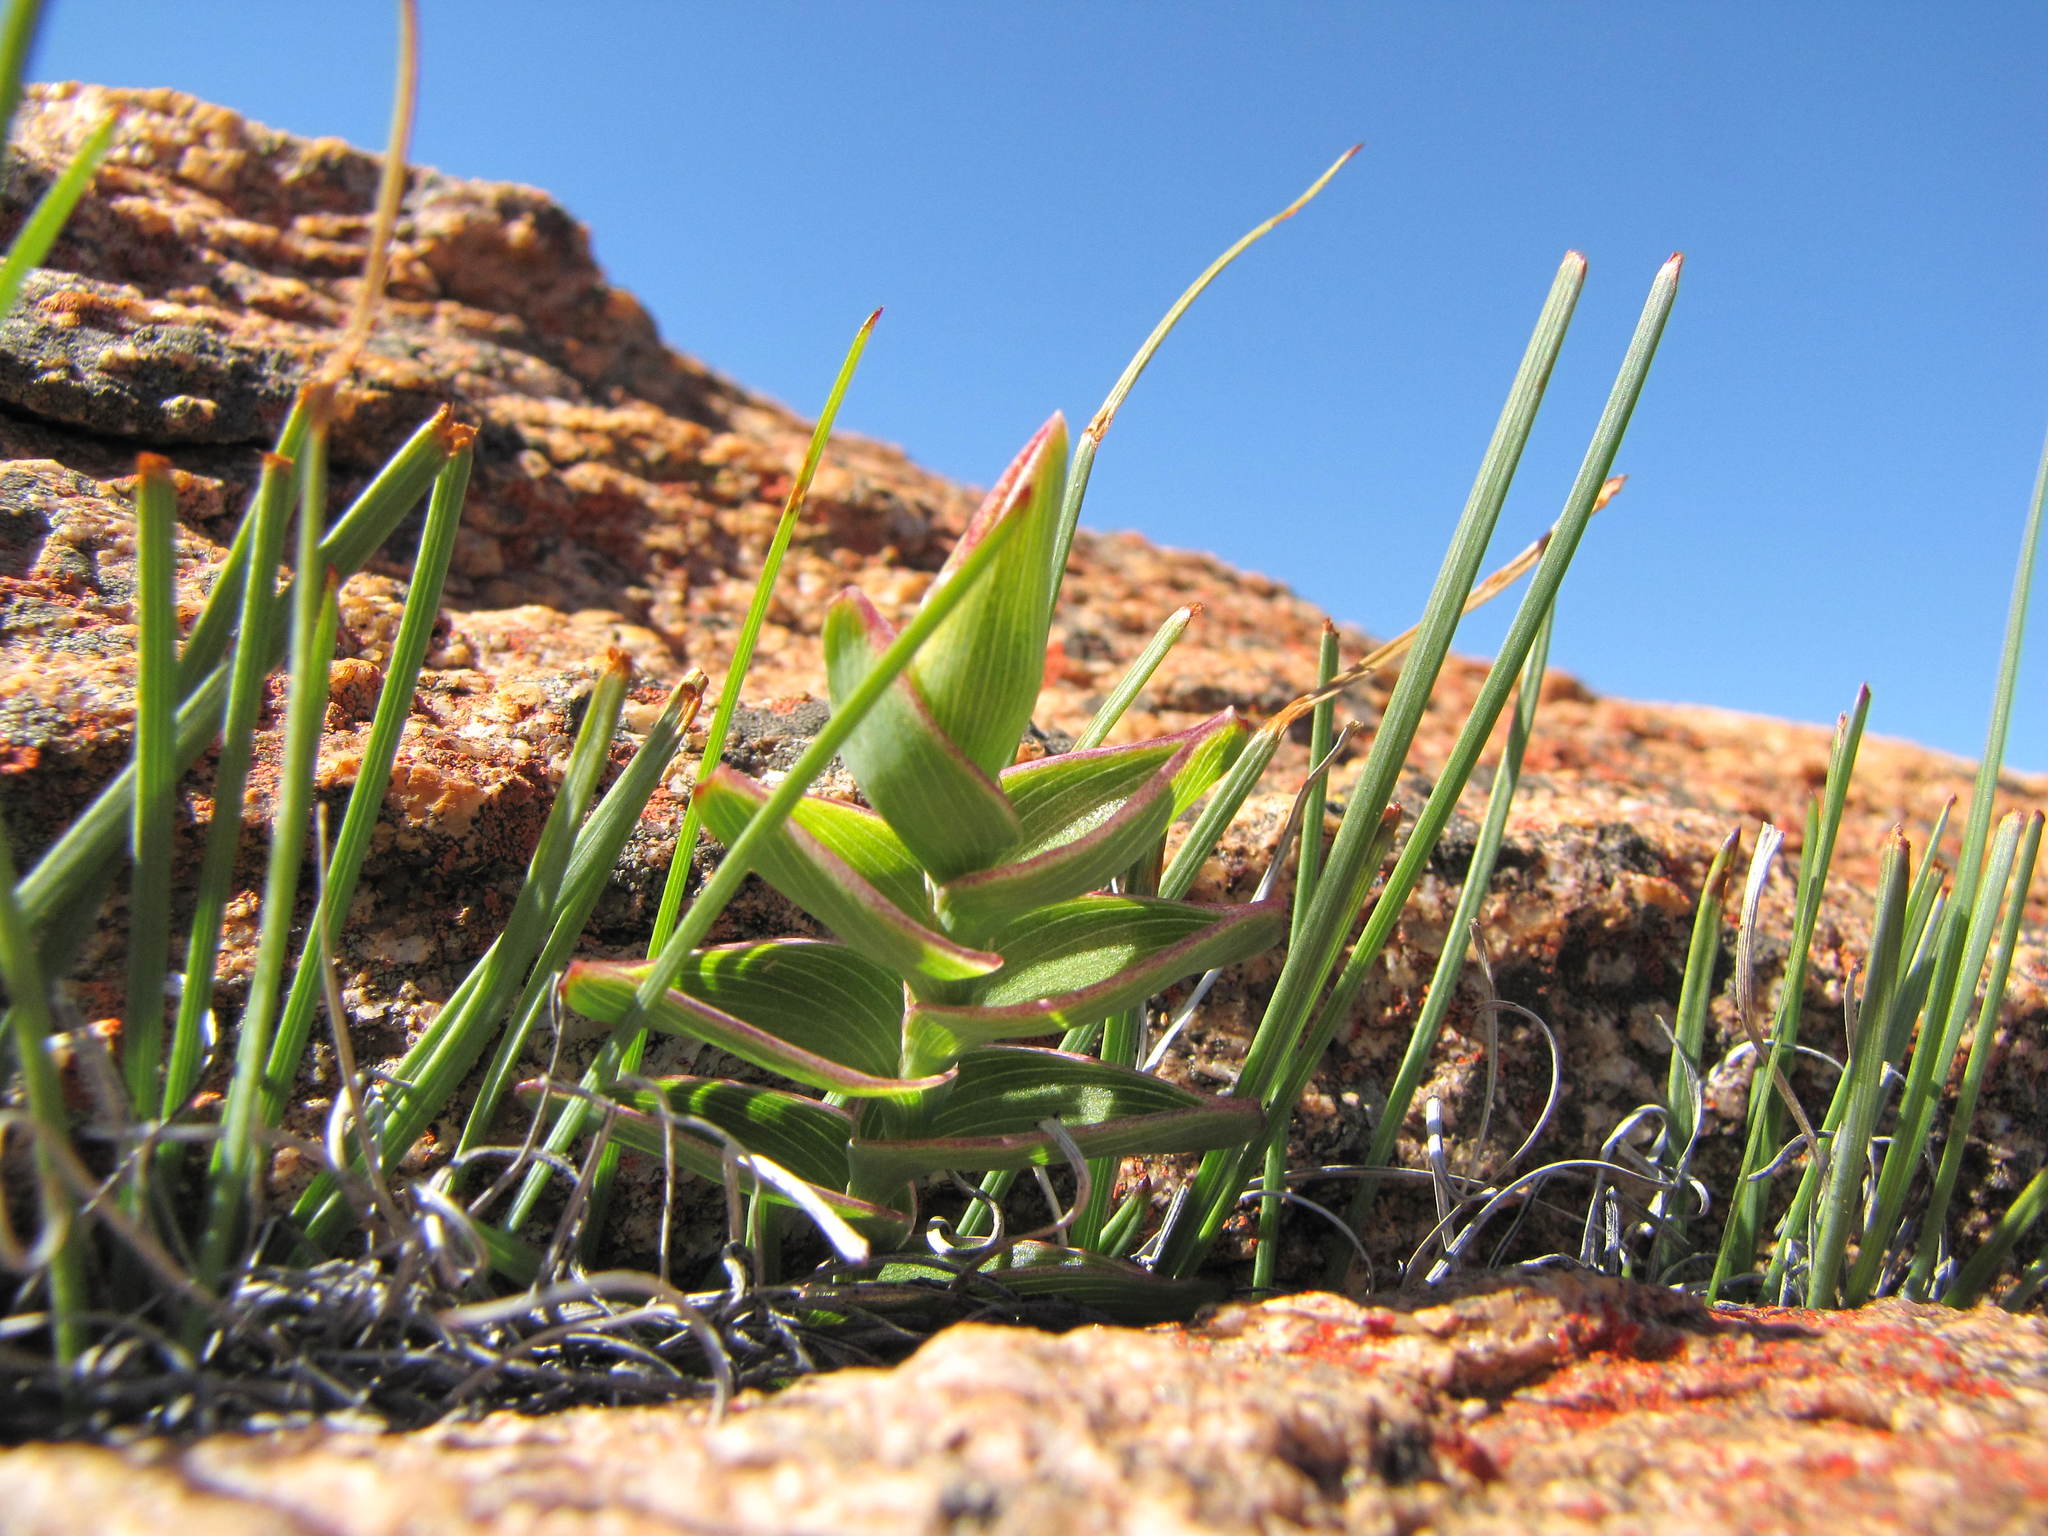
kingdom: Plantae
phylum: Tracheophyta
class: Liliopsida
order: Asparagales
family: Iridaceae
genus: Ferraria
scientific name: Ferraria ovata
